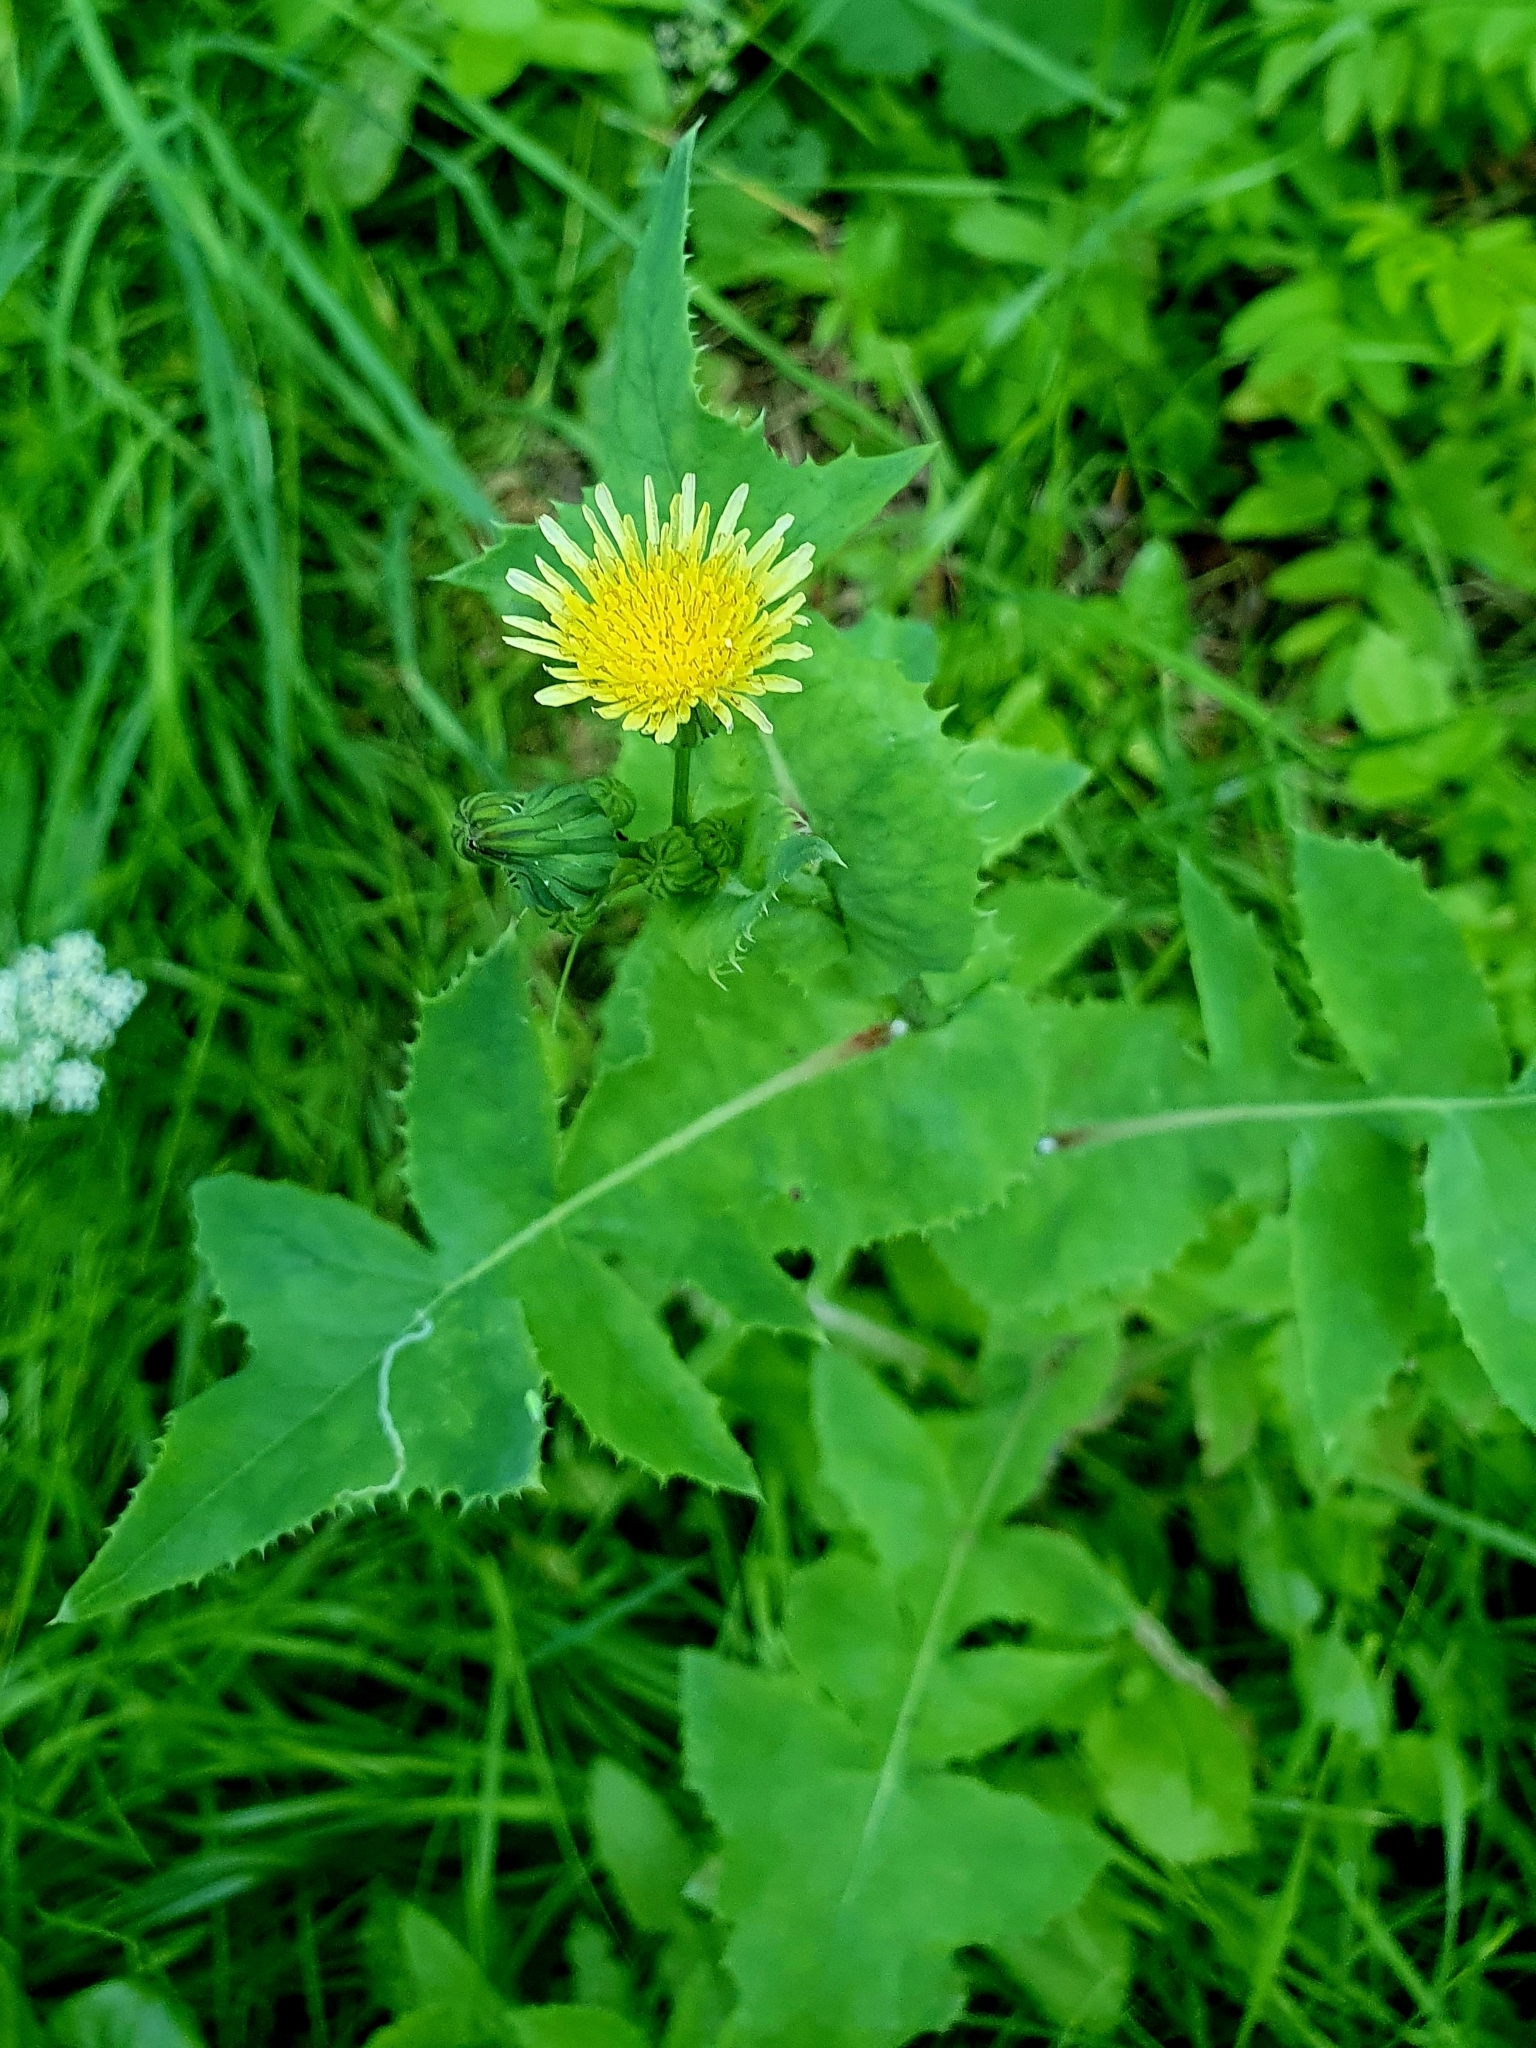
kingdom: Plantae
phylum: Tracheophyta
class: Magnoliopsida
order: Asterales
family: Asteraceae
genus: Sonchus
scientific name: Sonchus oleraceus
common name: Common sowthistle
